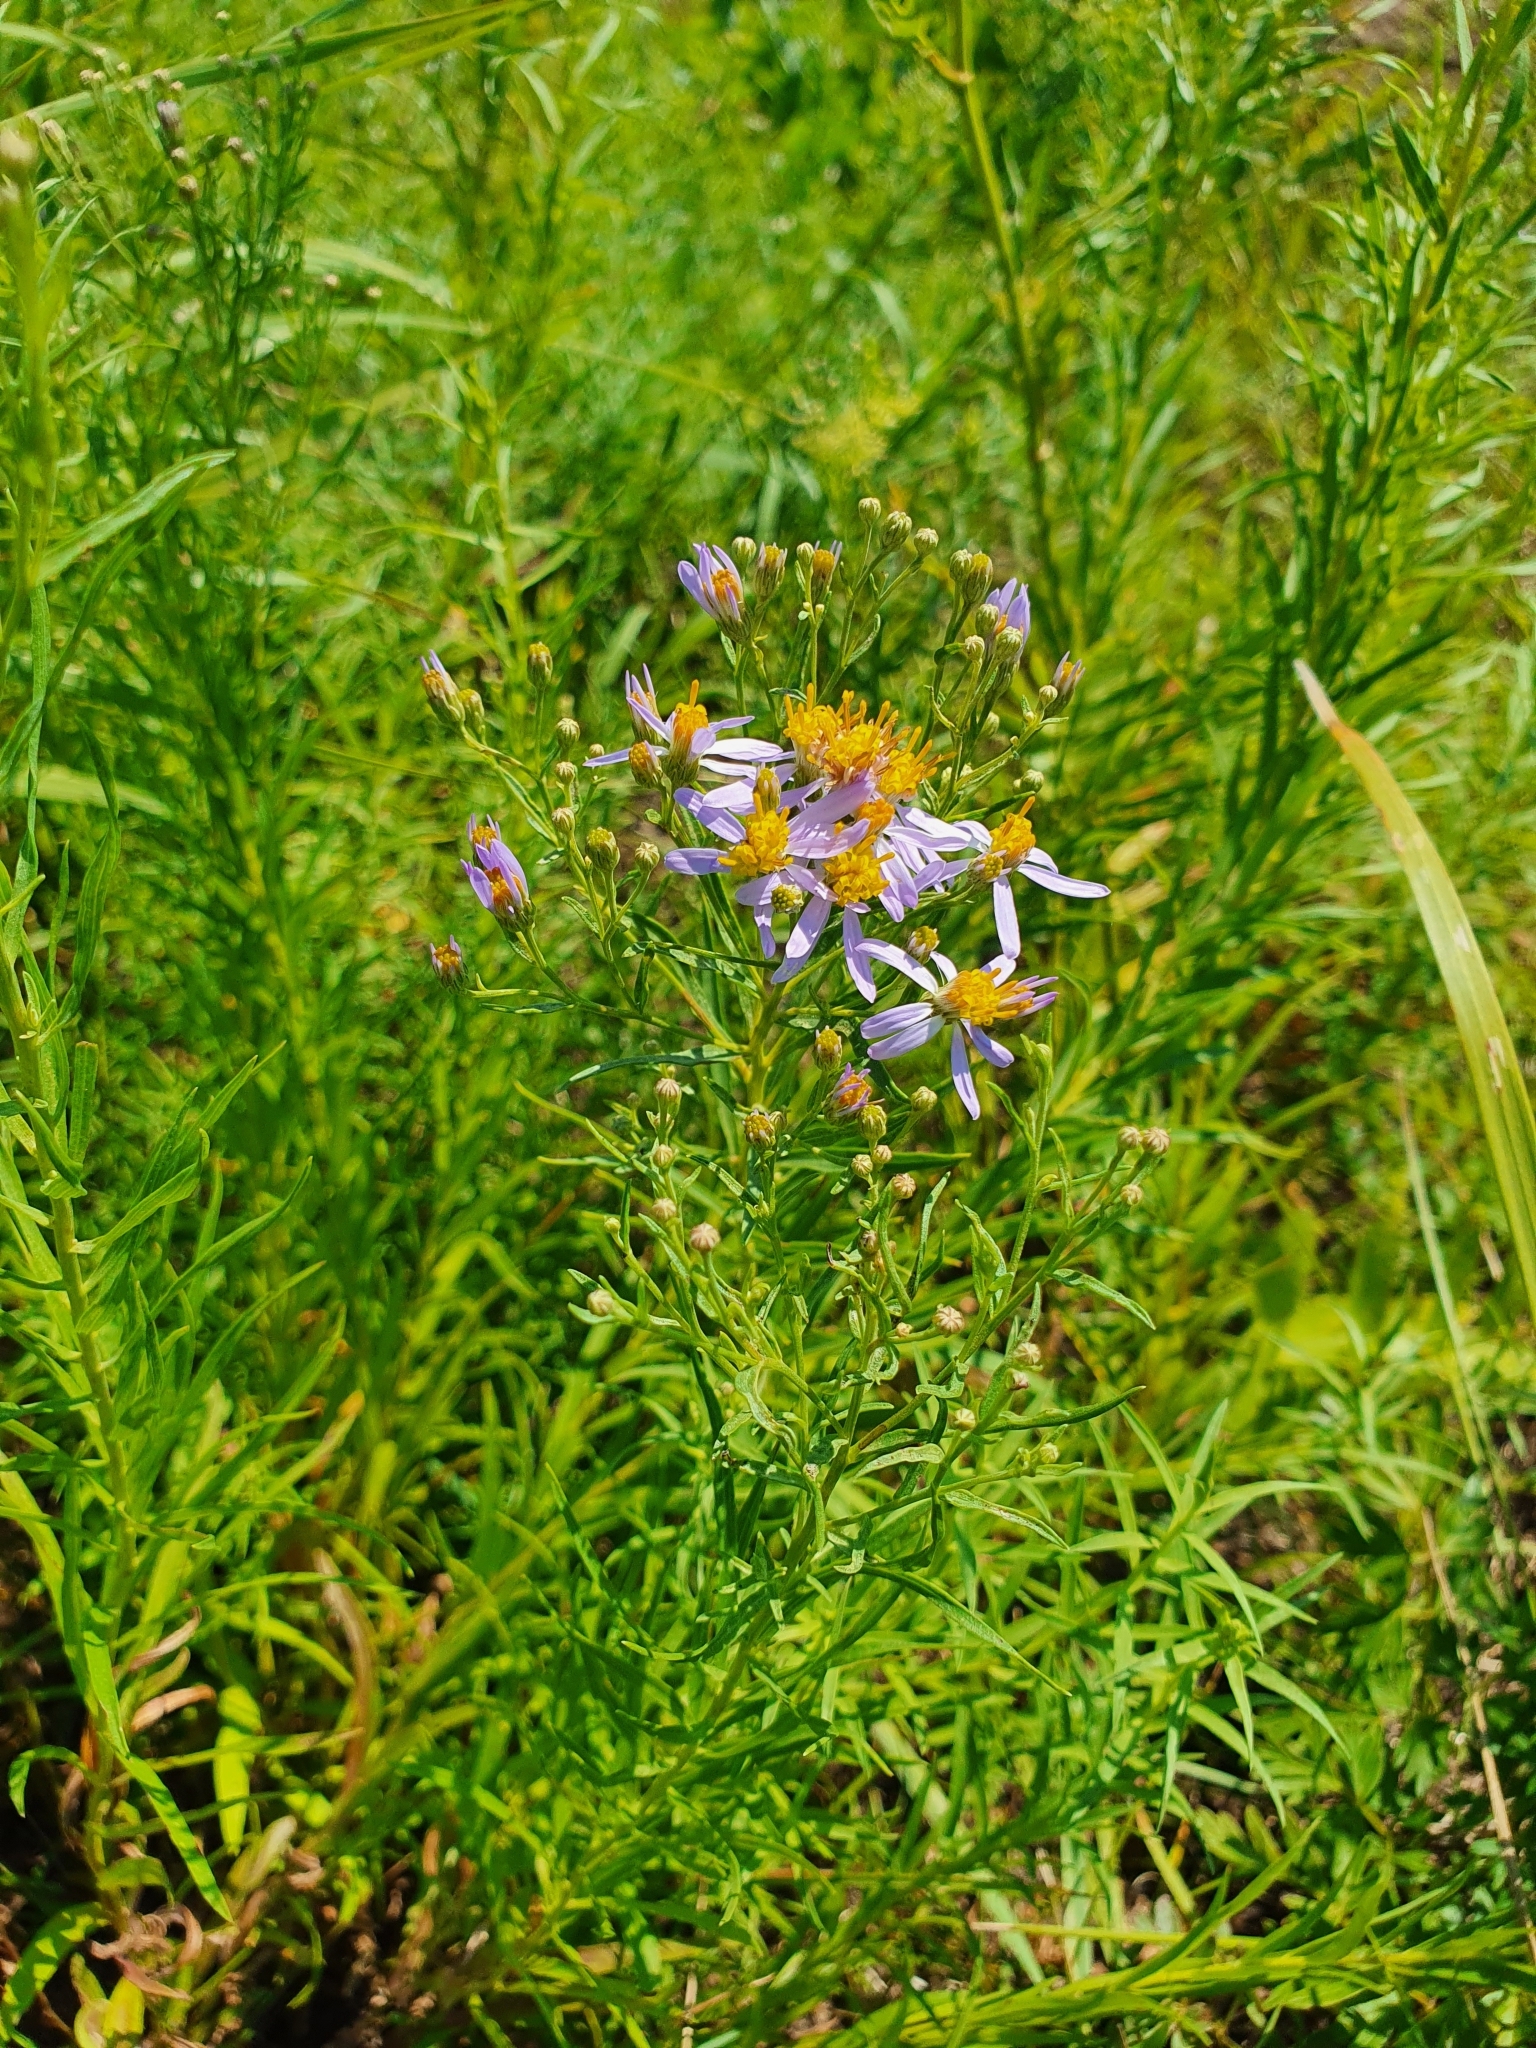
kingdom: Plantae
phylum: Tracheophyta
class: Magnoliopsida
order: Asterales
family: Asteraceae
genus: Galatella
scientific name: Galatella sedifolia
